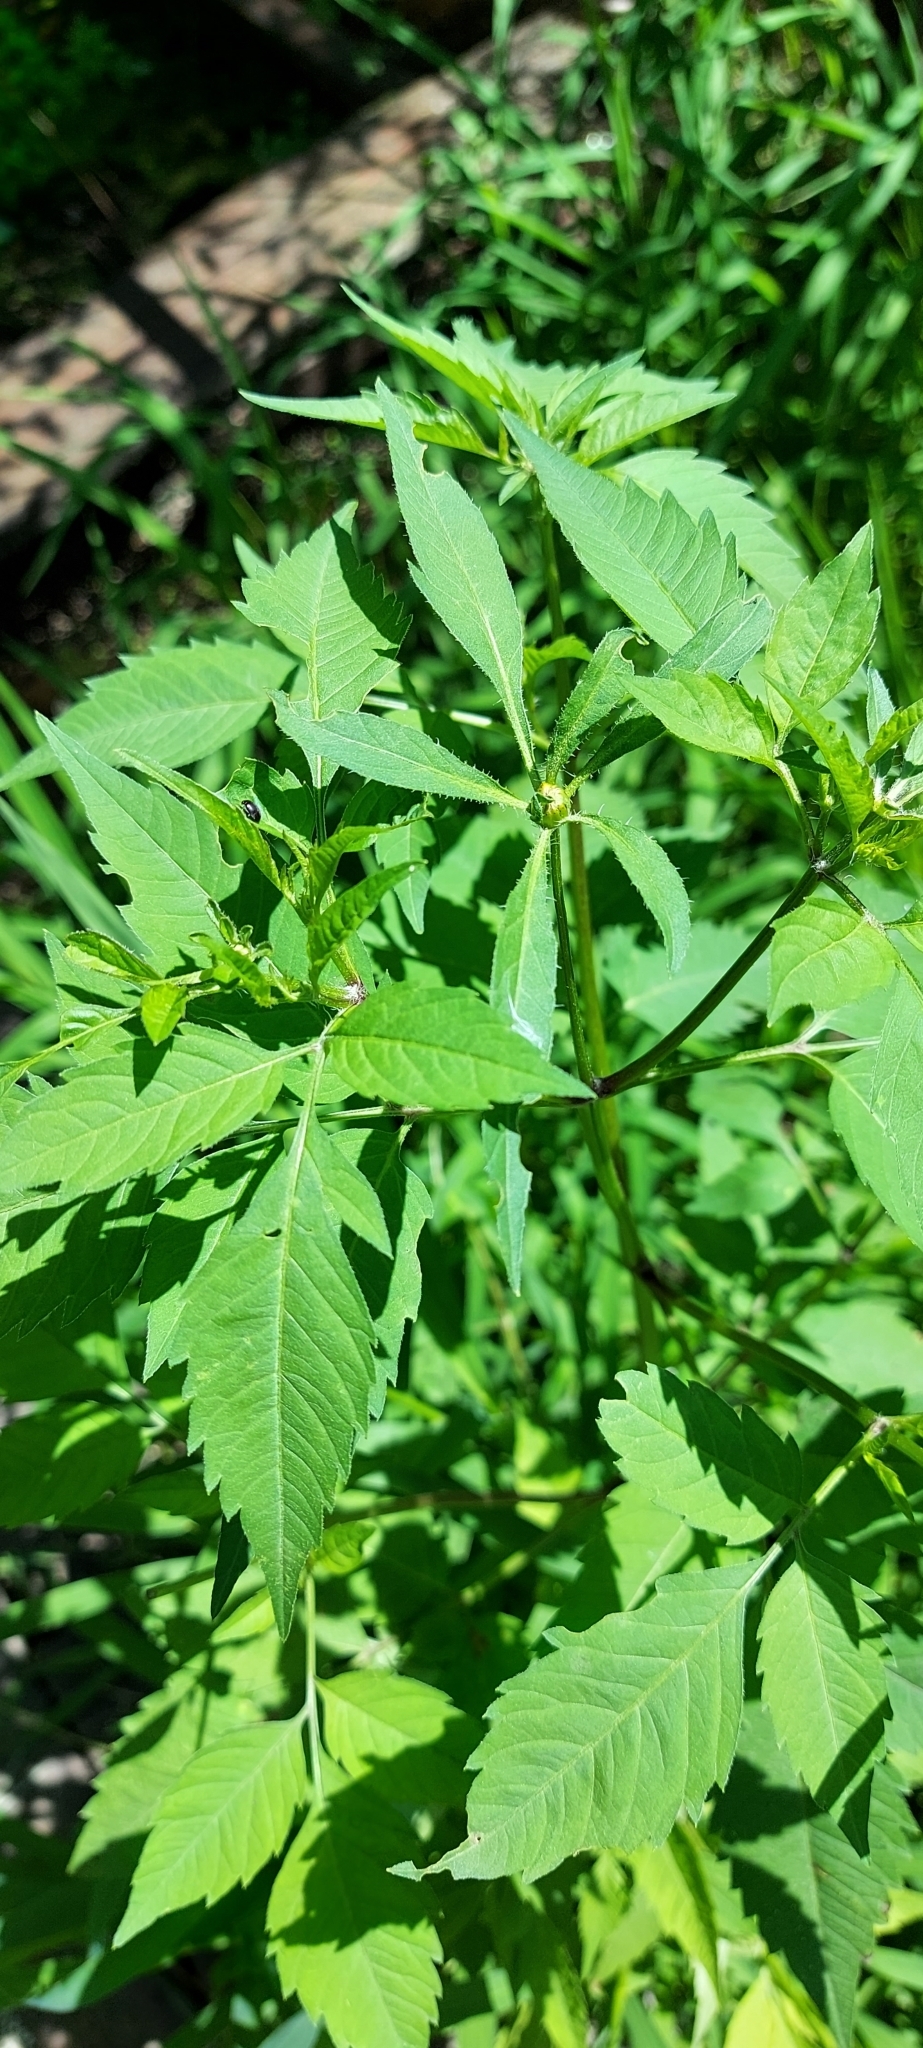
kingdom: Plantae
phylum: Tracheophyta
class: Magnoliopsida
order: Asterales
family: Asteraceae
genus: Bidens
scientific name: Bidens frondosa
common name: Beggarticks
